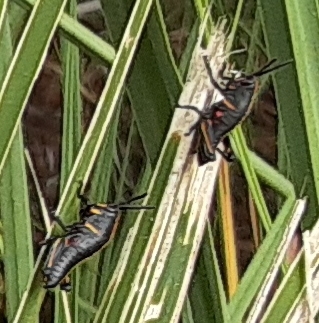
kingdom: Animalia
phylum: Arthropoda
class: Insecta
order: Orthoptera
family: Romaleidae
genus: Romalea
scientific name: Romalea microptera
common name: Eastern lubber grasshopper
